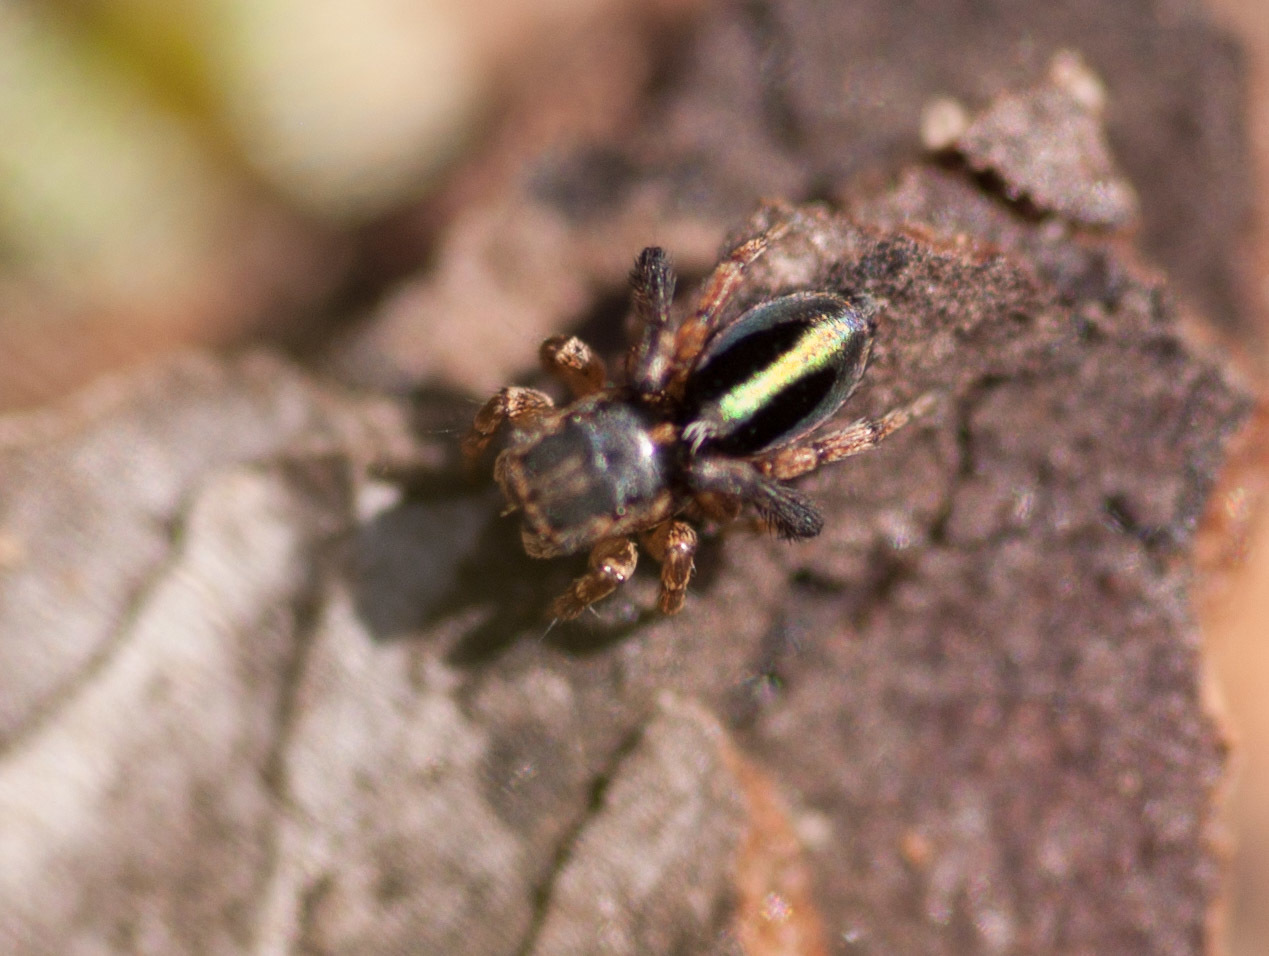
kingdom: Animalia
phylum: Arthropoda
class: Arachnida
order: Araneae
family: Salticidae
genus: Maratus
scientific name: Maratus chrysomelas
